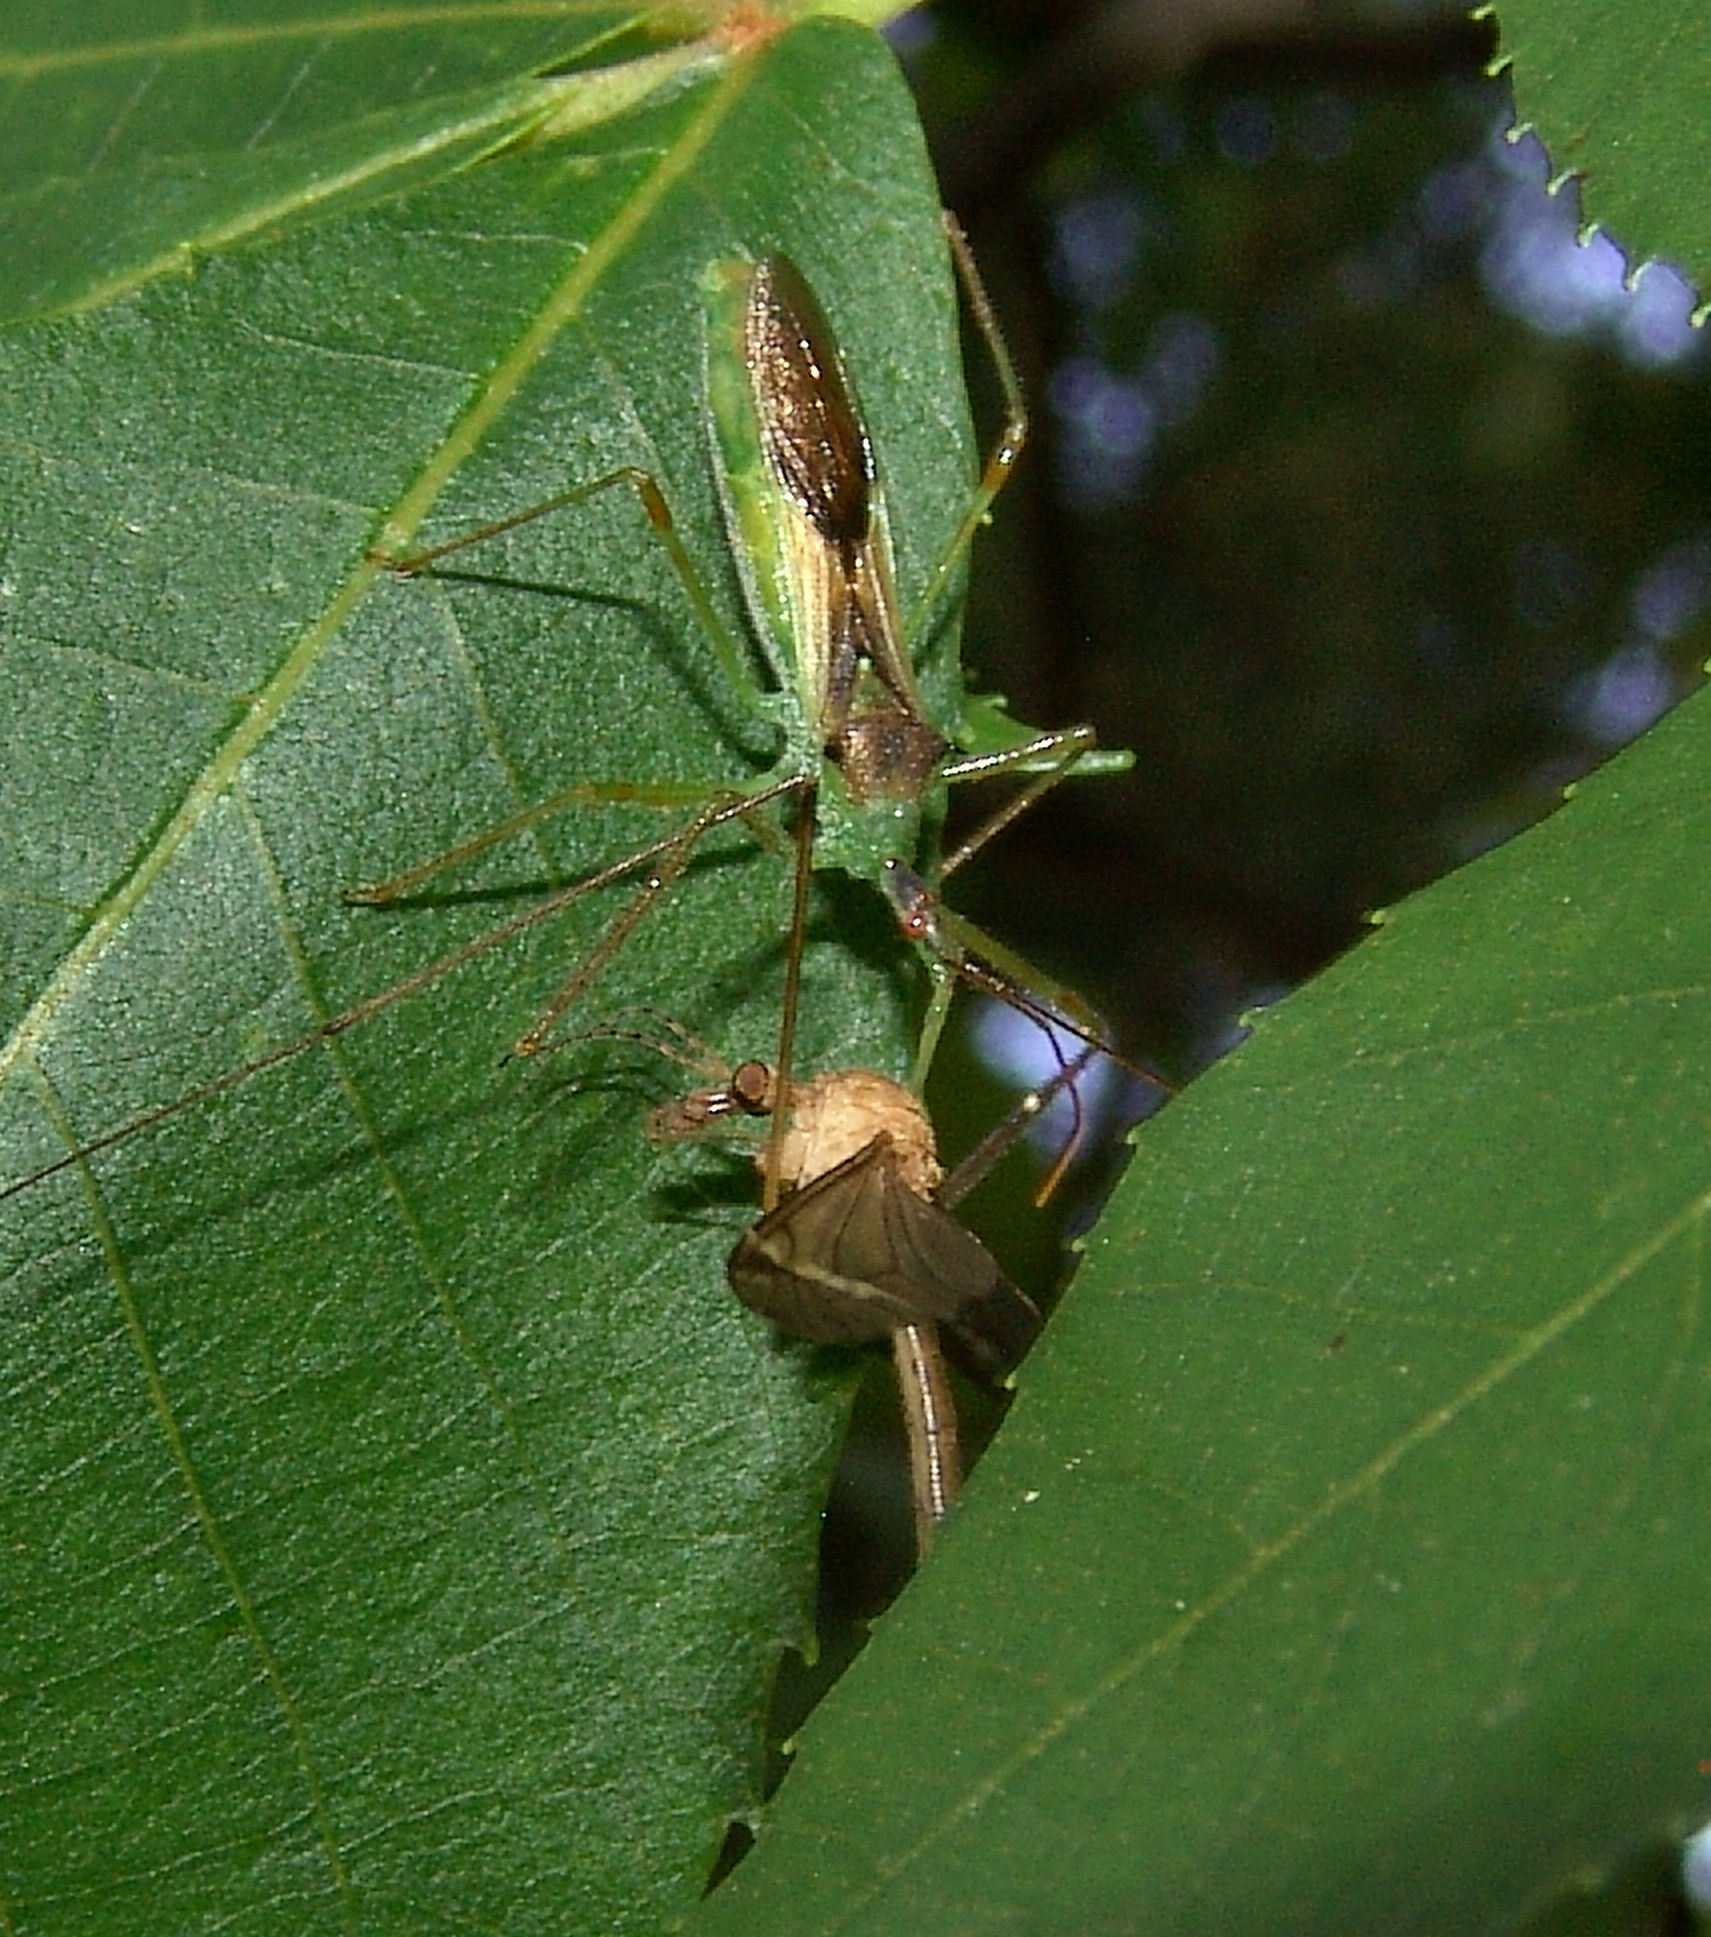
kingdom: Animalia
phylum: Arthropoda
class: Insecta
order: Hemiptera
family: Reduviidae
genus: Zelus
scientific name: Zelus luridus
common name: Pale green assassin bug
